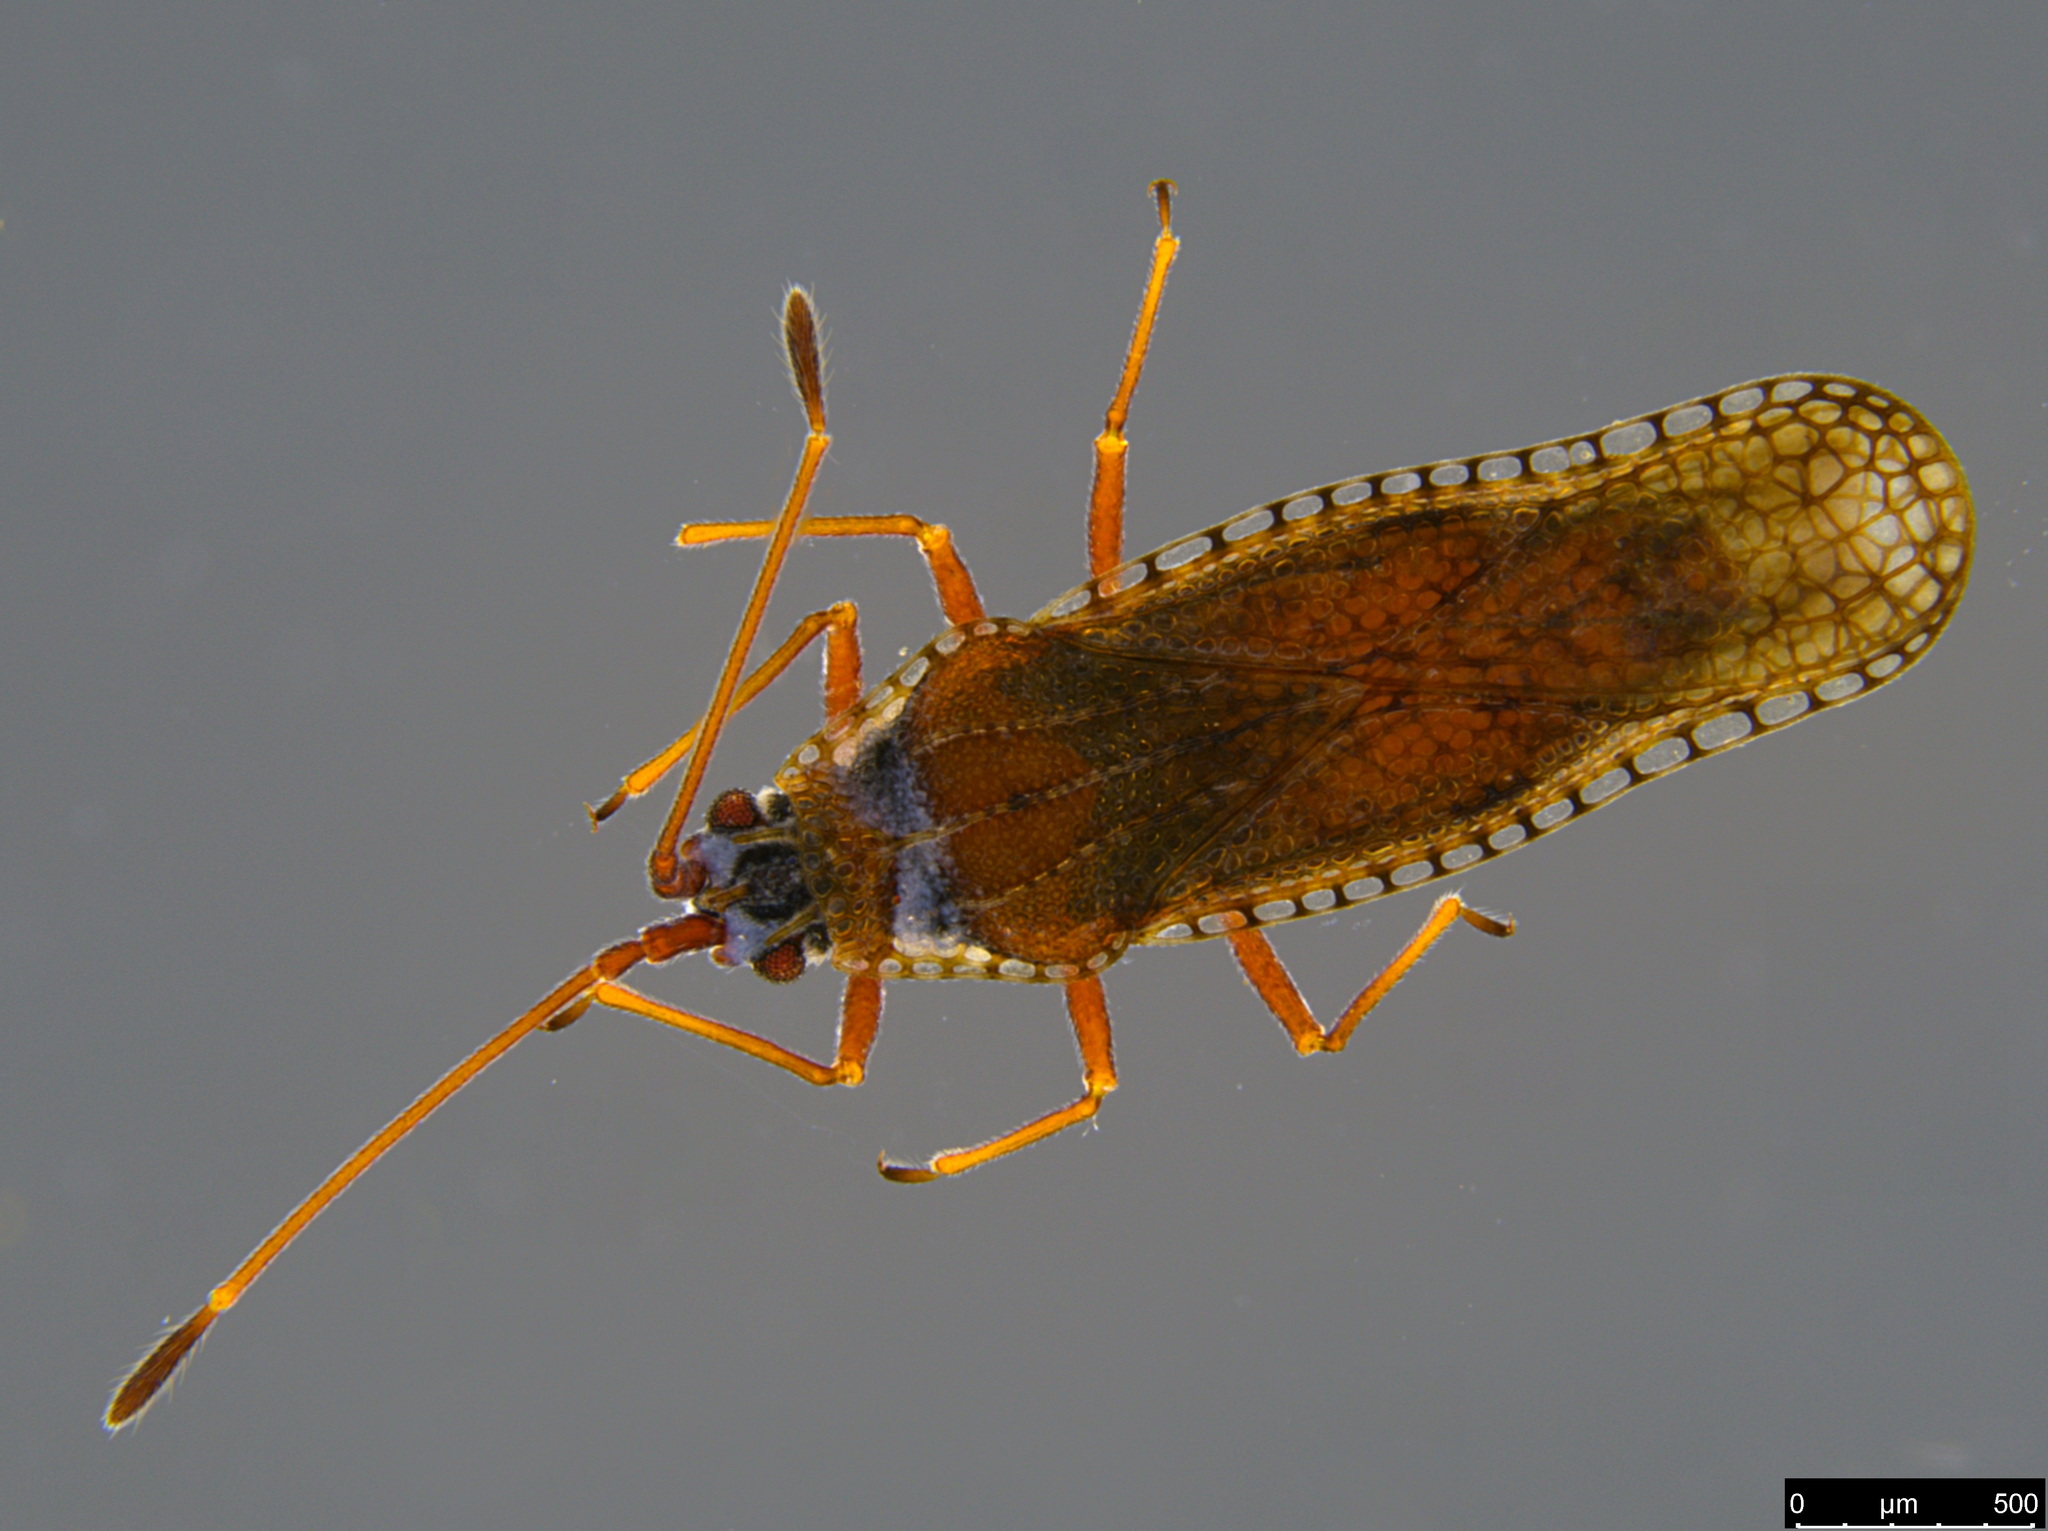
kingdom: Animalia
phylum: Arthropoda
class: Insecta
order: Hemiptera
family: Tingidae
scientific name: Tingidae
